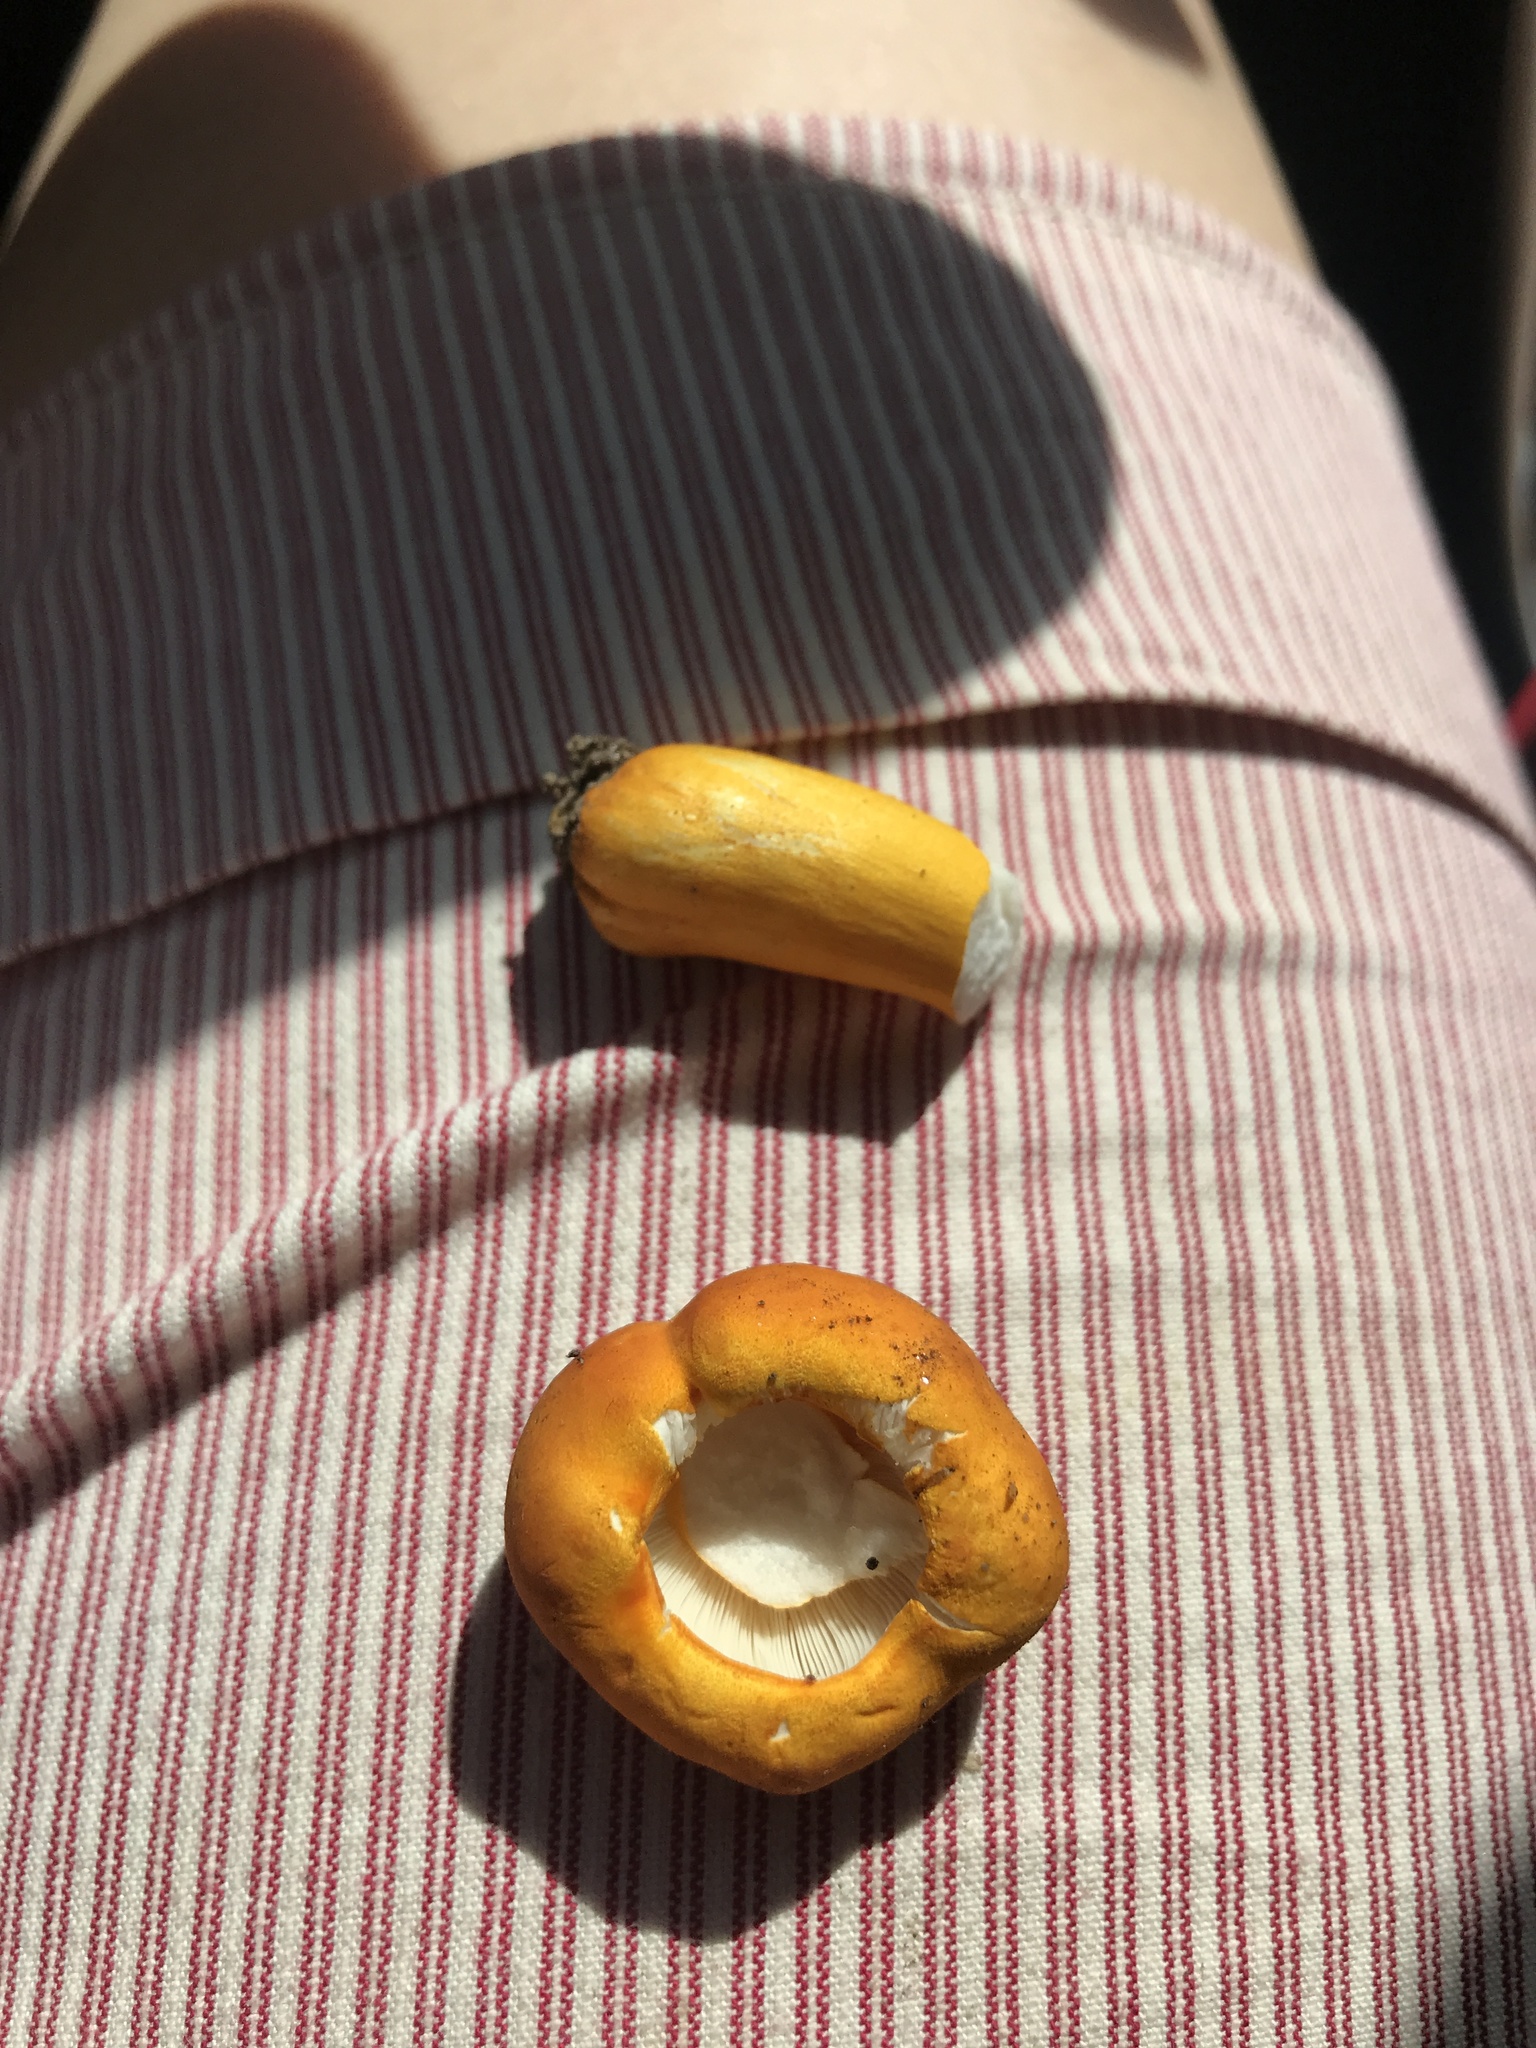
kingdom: Fungi
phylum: Basidiomycota
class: Agaricomycetes
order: Russulales
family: Russulaceae
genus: Russula
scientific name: Russula flavida
